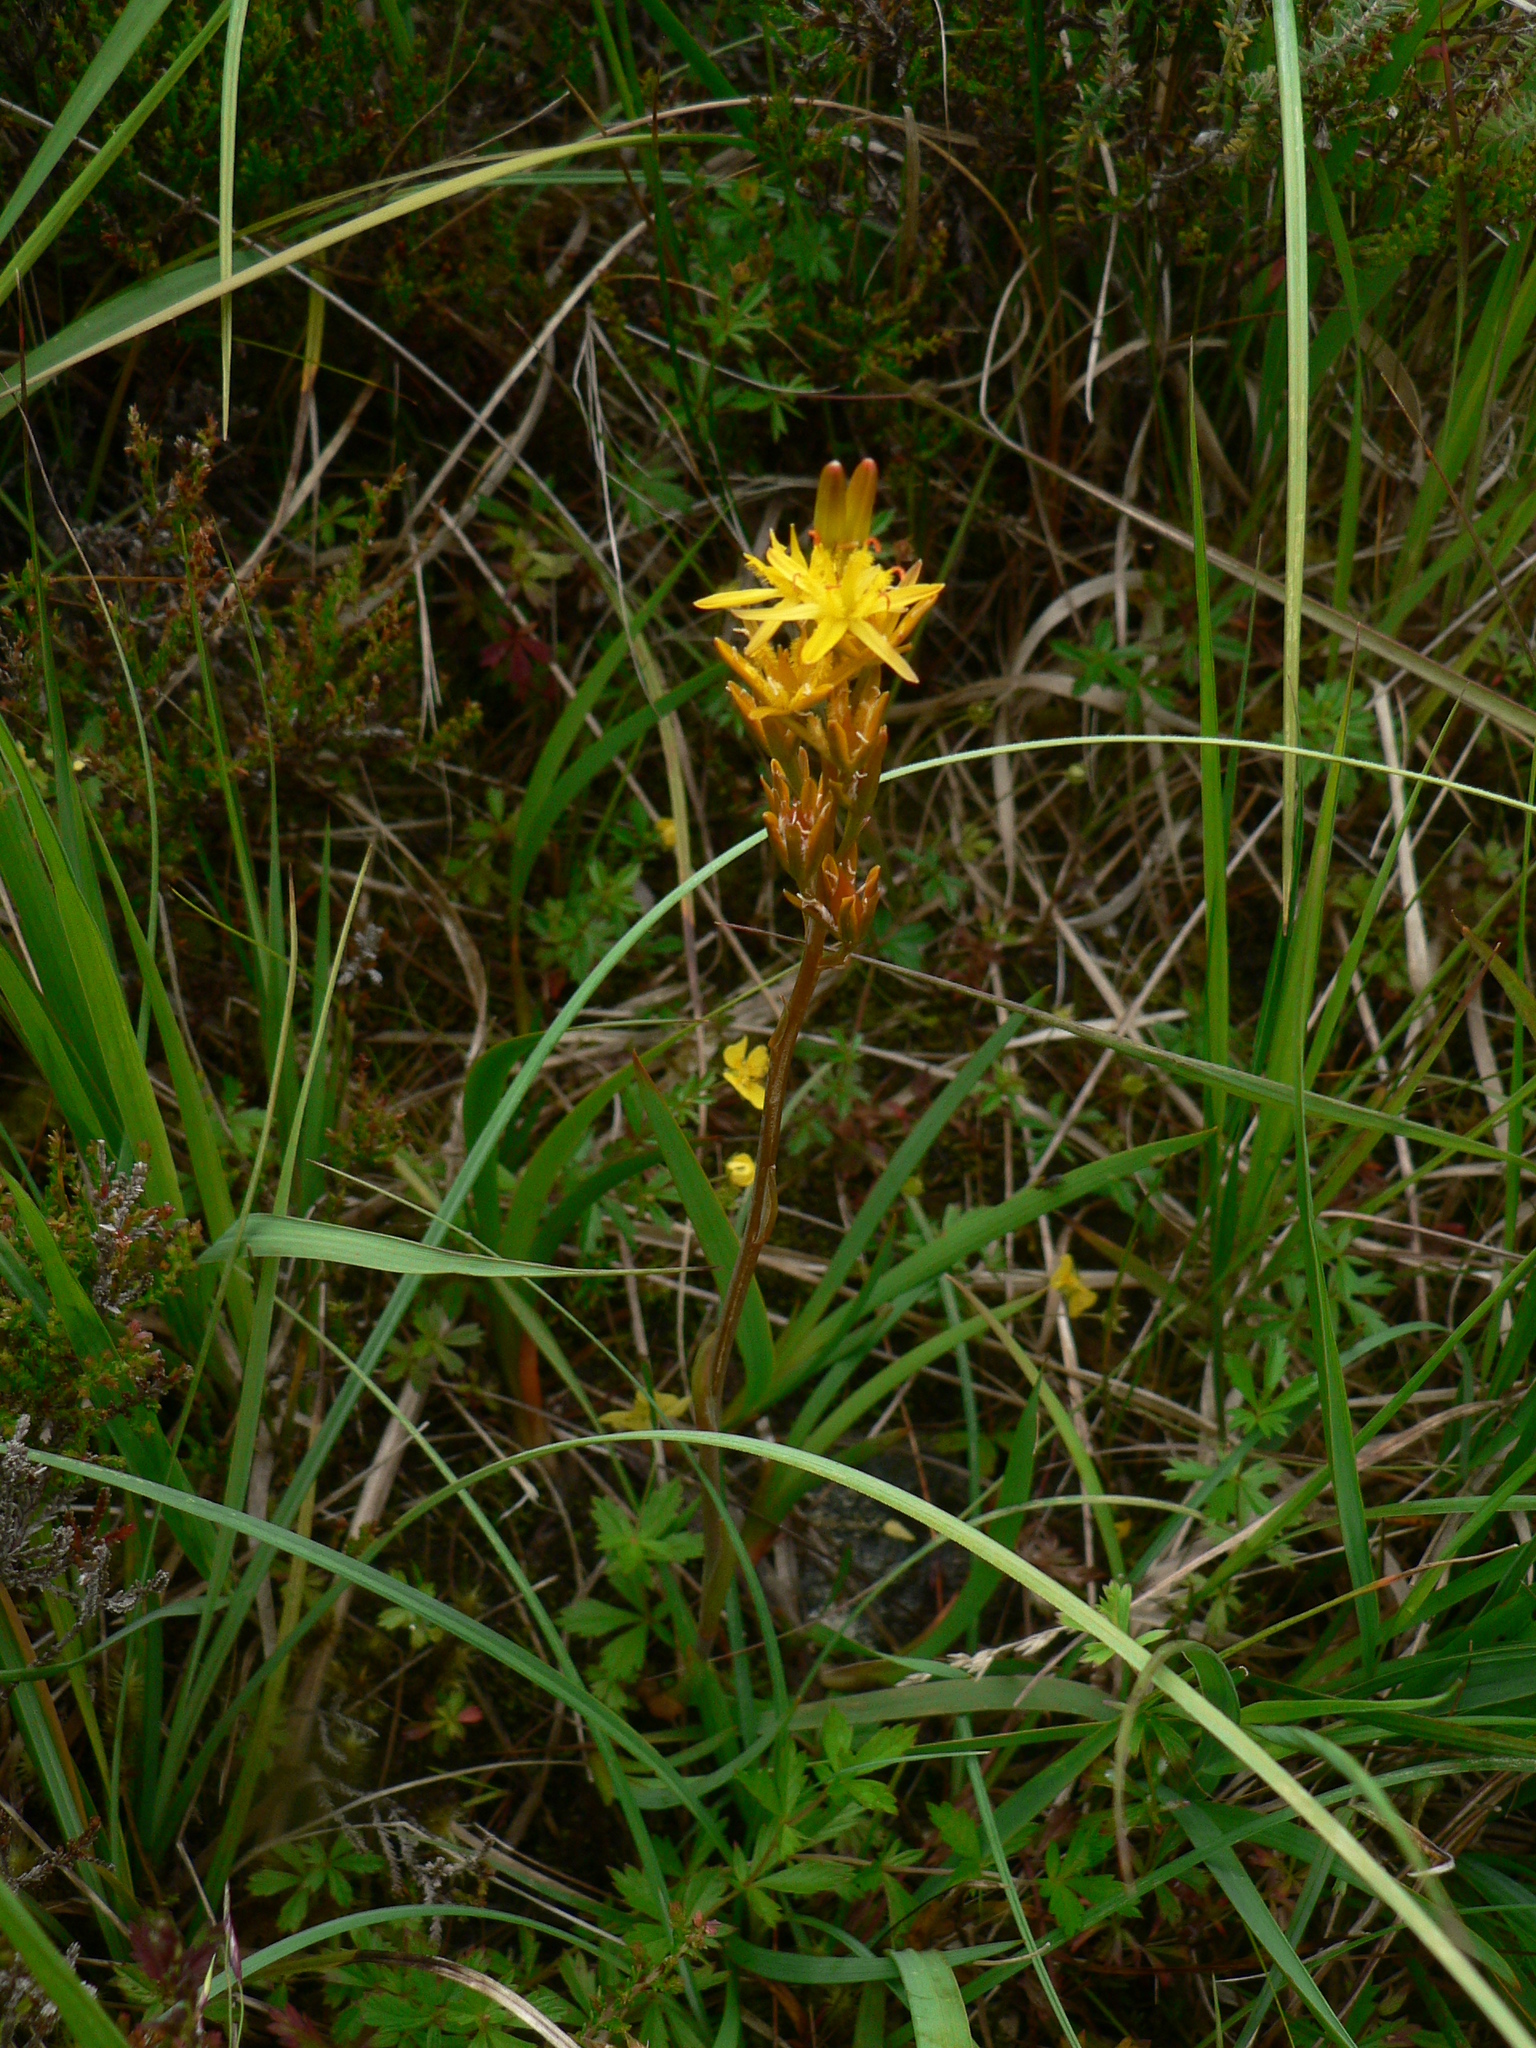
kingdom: Plantae
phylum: Tracheophyta
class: Liliopsida
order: Dioscoreales
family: Nartheciaceae
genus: Narthecium
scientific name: Narthecium ossifragum
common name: Bog asphodel
